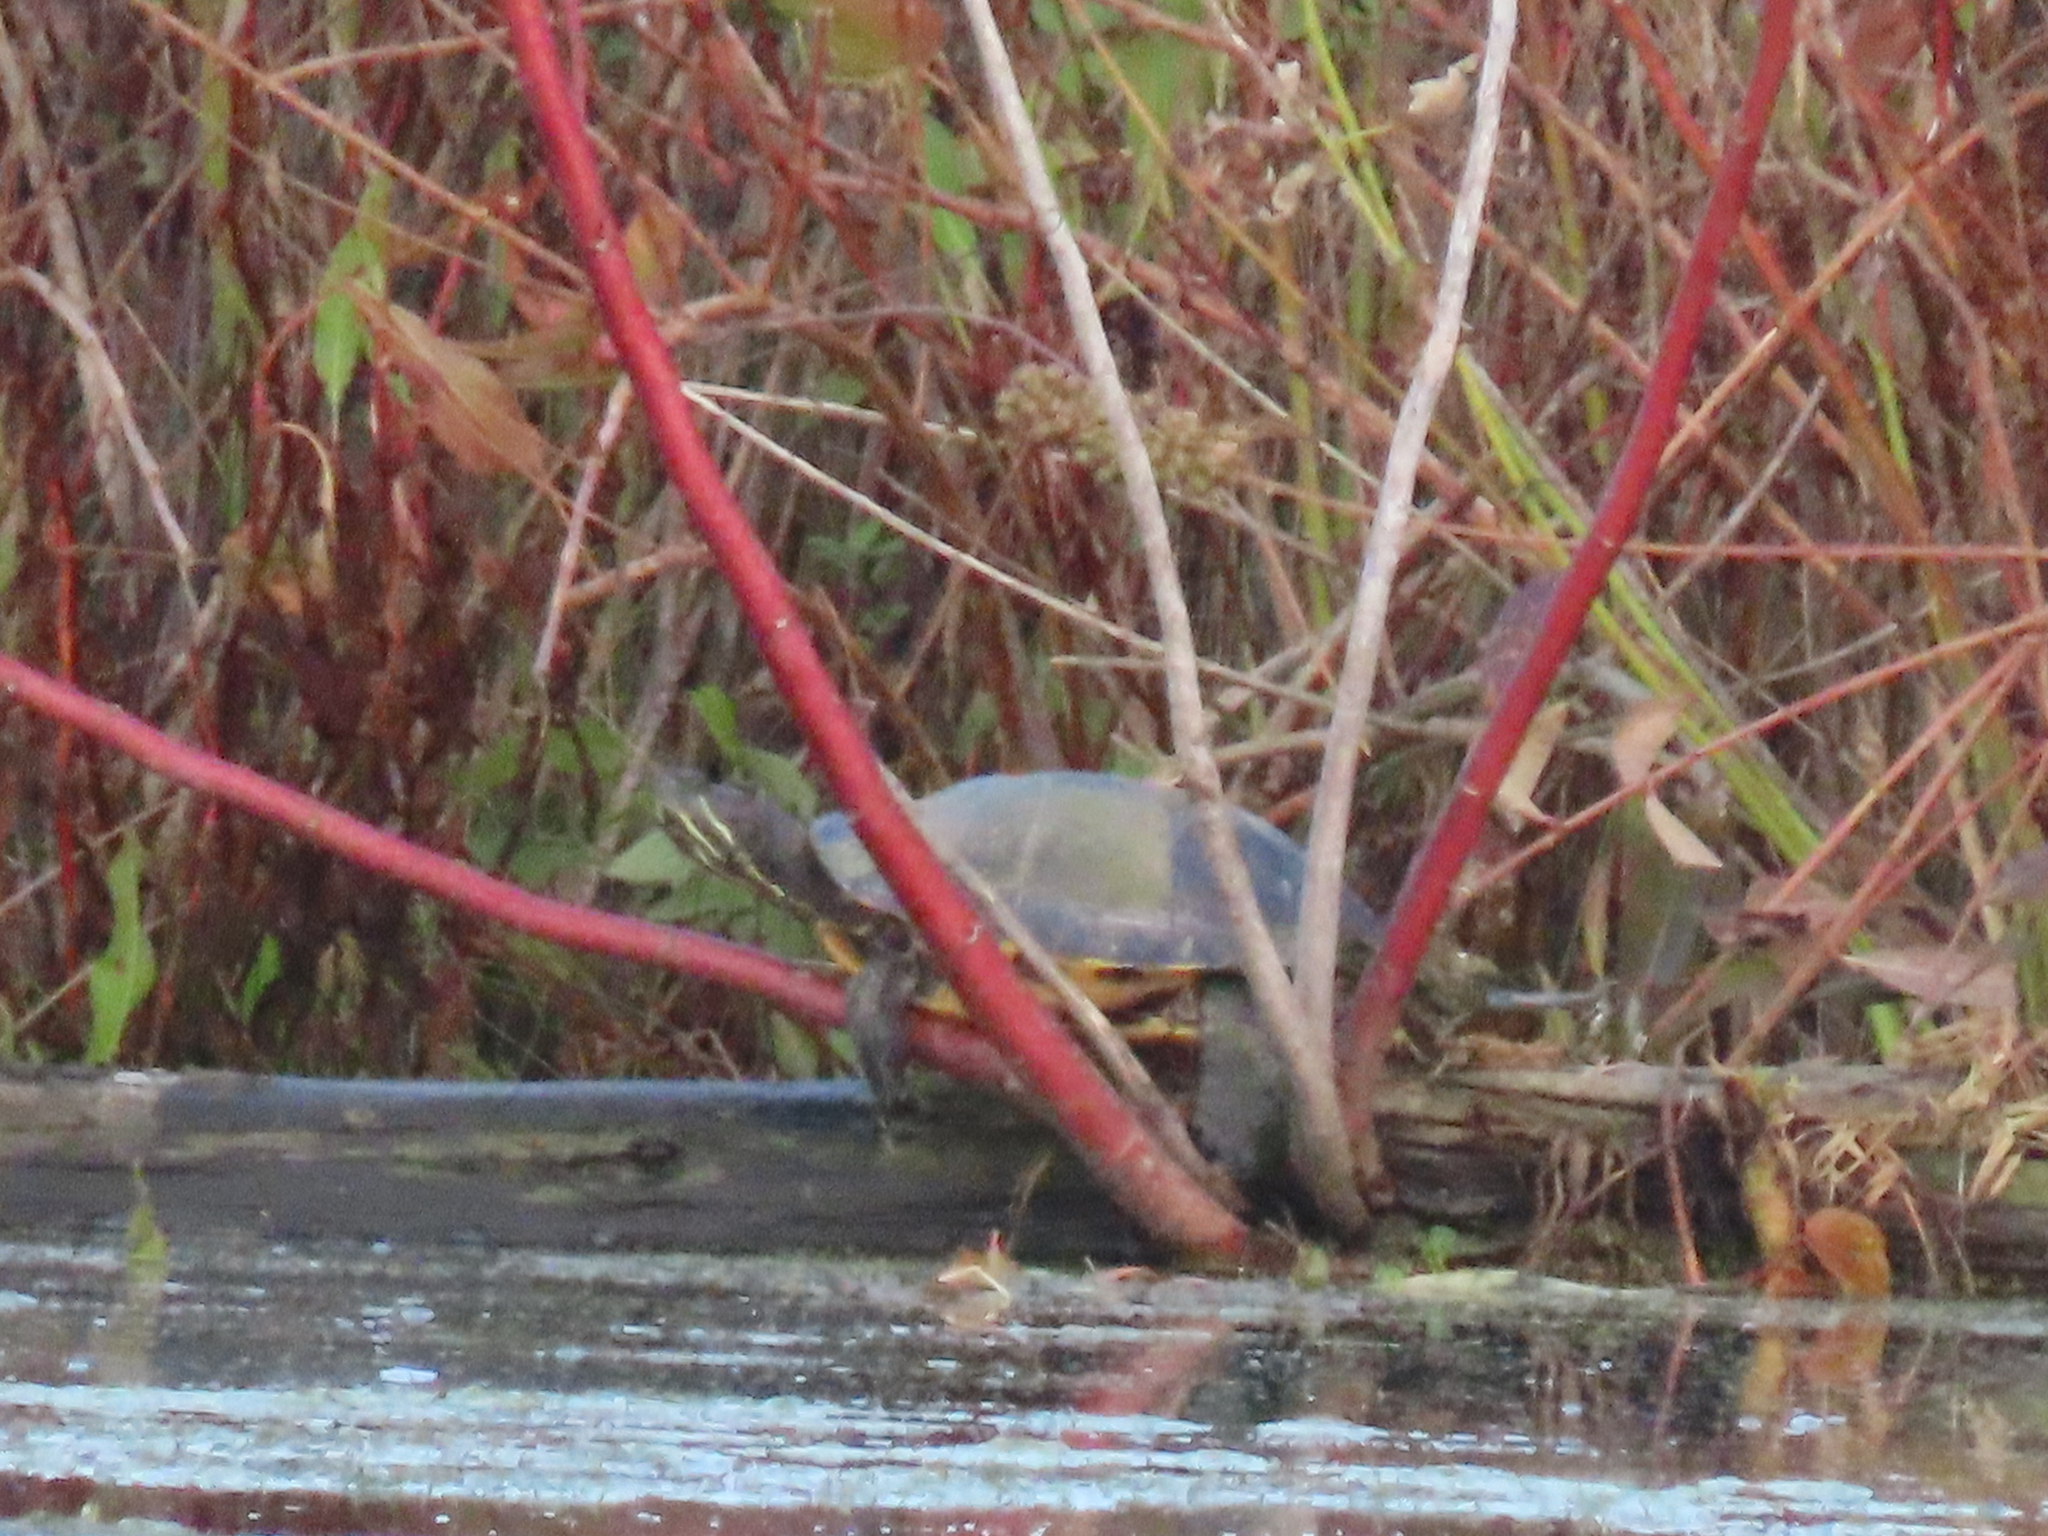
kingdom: Animalia
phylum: Chordata
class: Testudines
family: Emydidae
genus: Trachemys
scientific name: Trachemys scripta
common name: Slider
